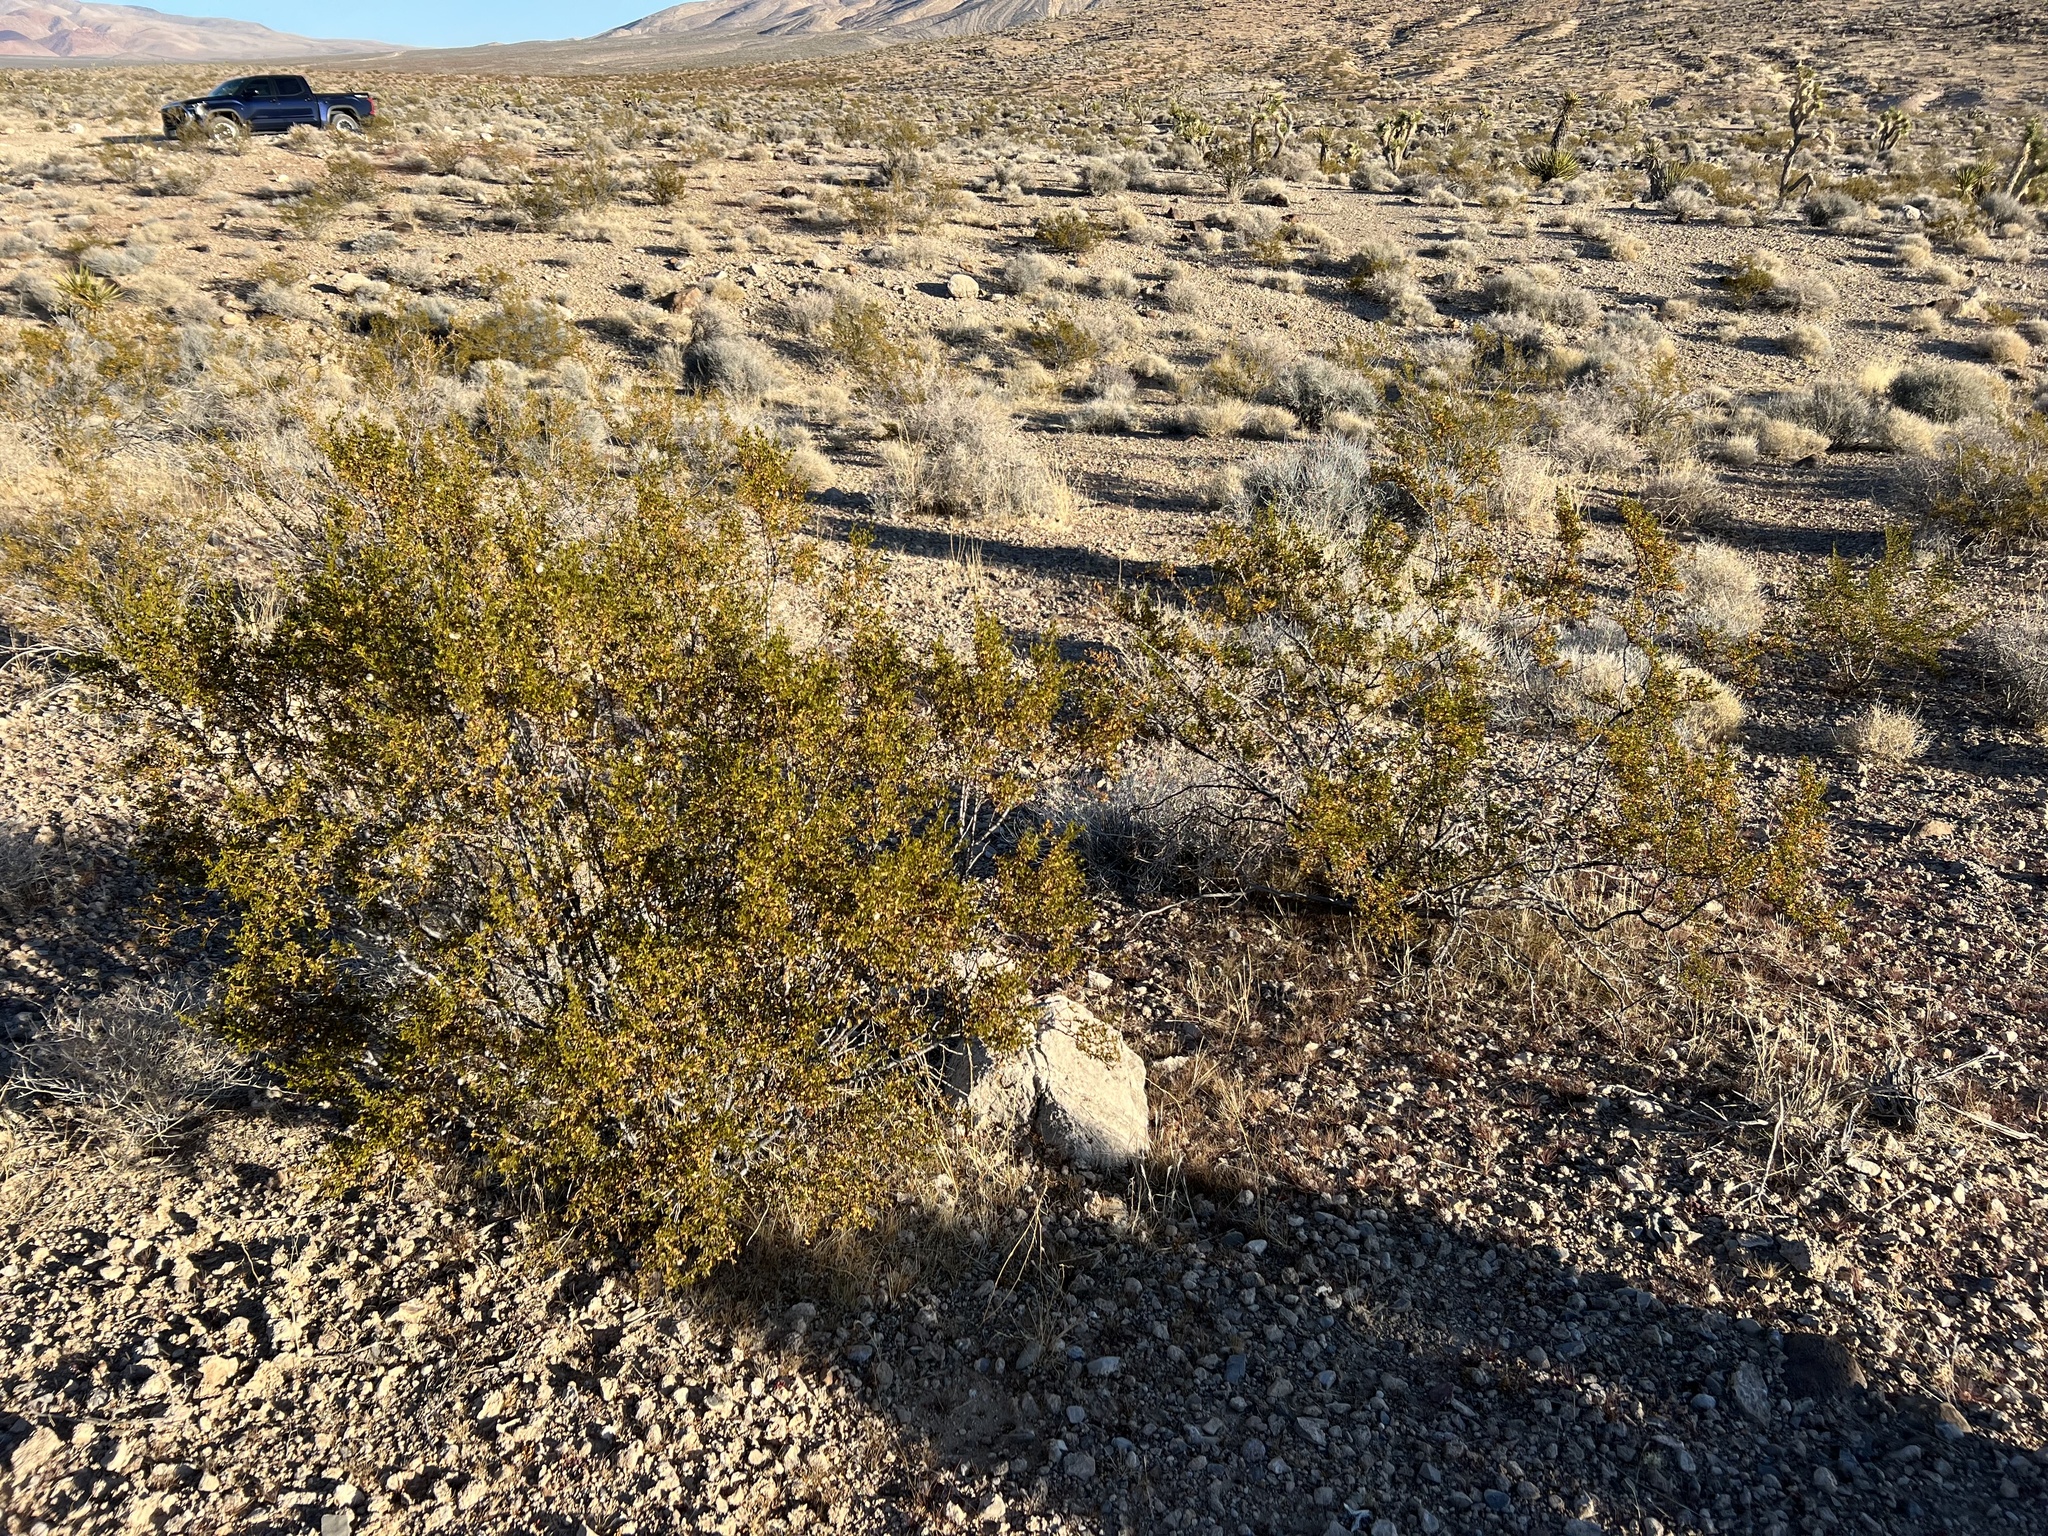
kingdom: Plantae
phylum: Tracheophyta
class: Magnoliopsida
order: Zygophyllales
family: Zygophyllaceae
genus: Larrea
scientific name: Larrea tridentata
